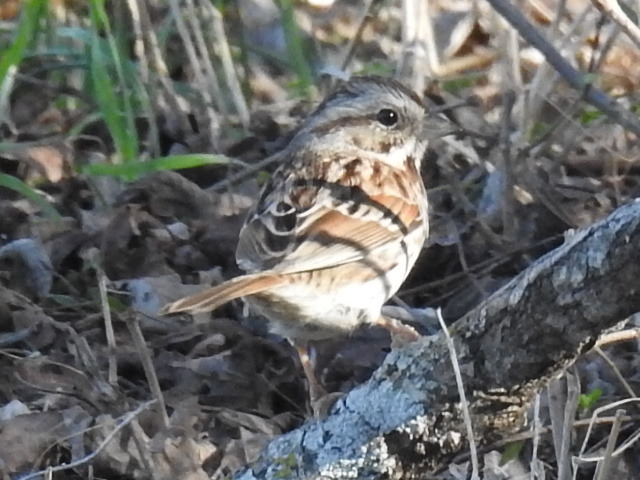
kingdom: Animalia
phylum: Chordata
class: Aves
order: Passeriformes
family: Passerellidae
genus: Melospiza
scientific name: Melospiza melodia
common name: Song sparrow
